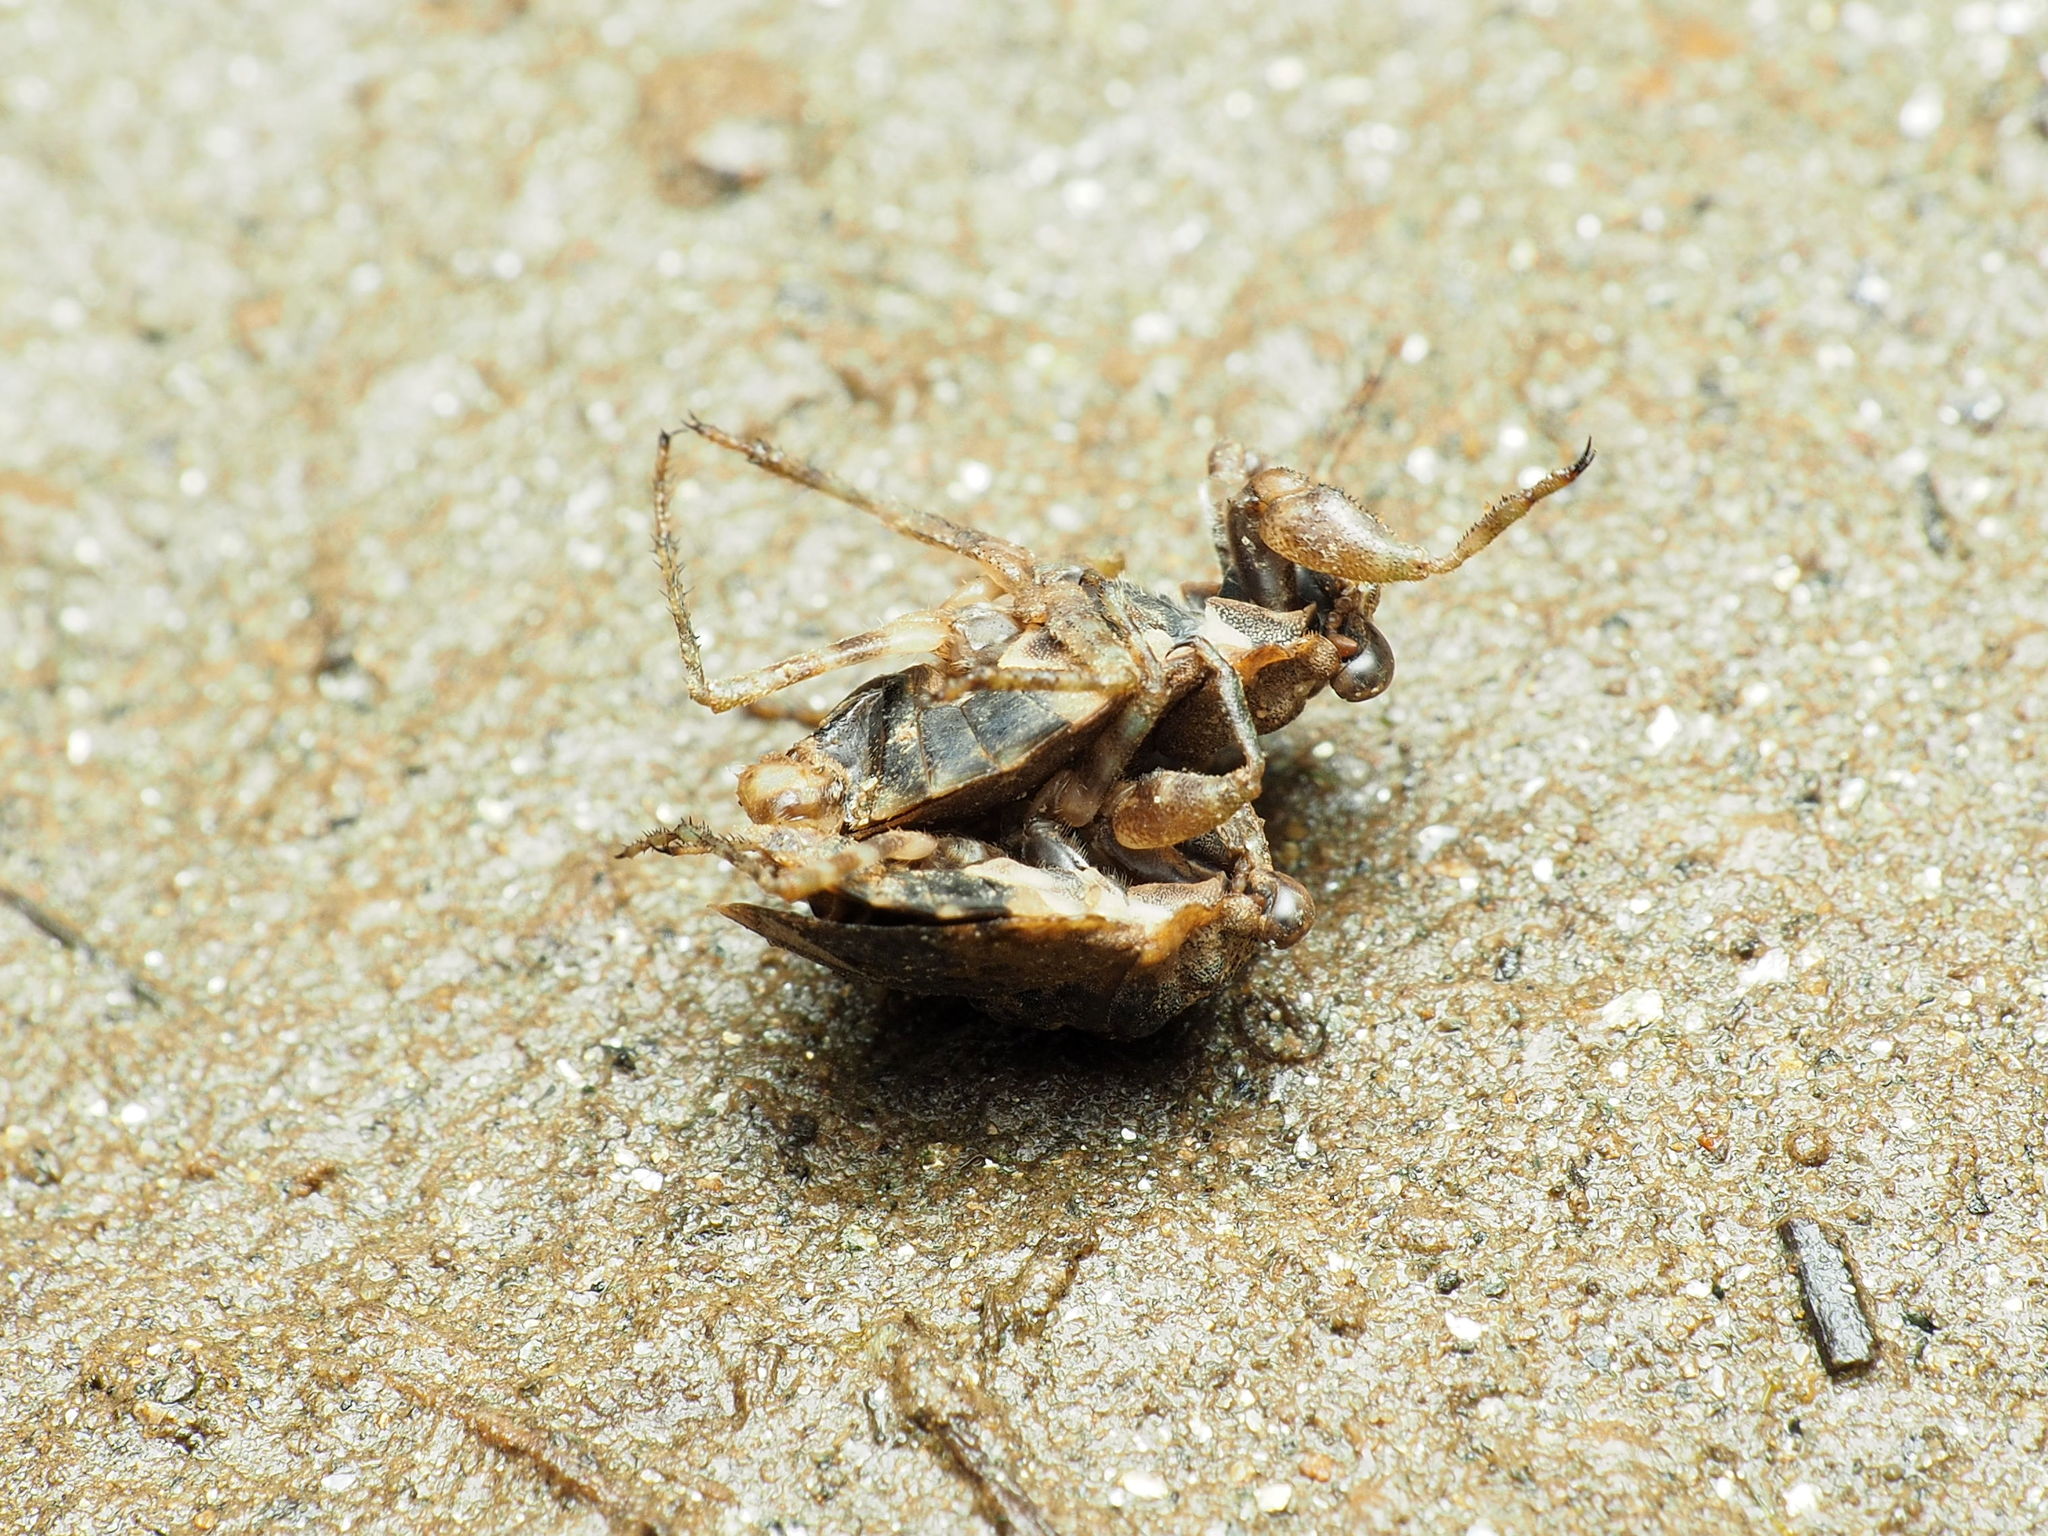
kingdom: Animalia
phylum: Arthropoda
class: Insecta
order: Hemiptera
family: Gelastocoridae
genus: Gelastocoris
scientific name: Gelastocoris oculatus
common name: Toad bug
